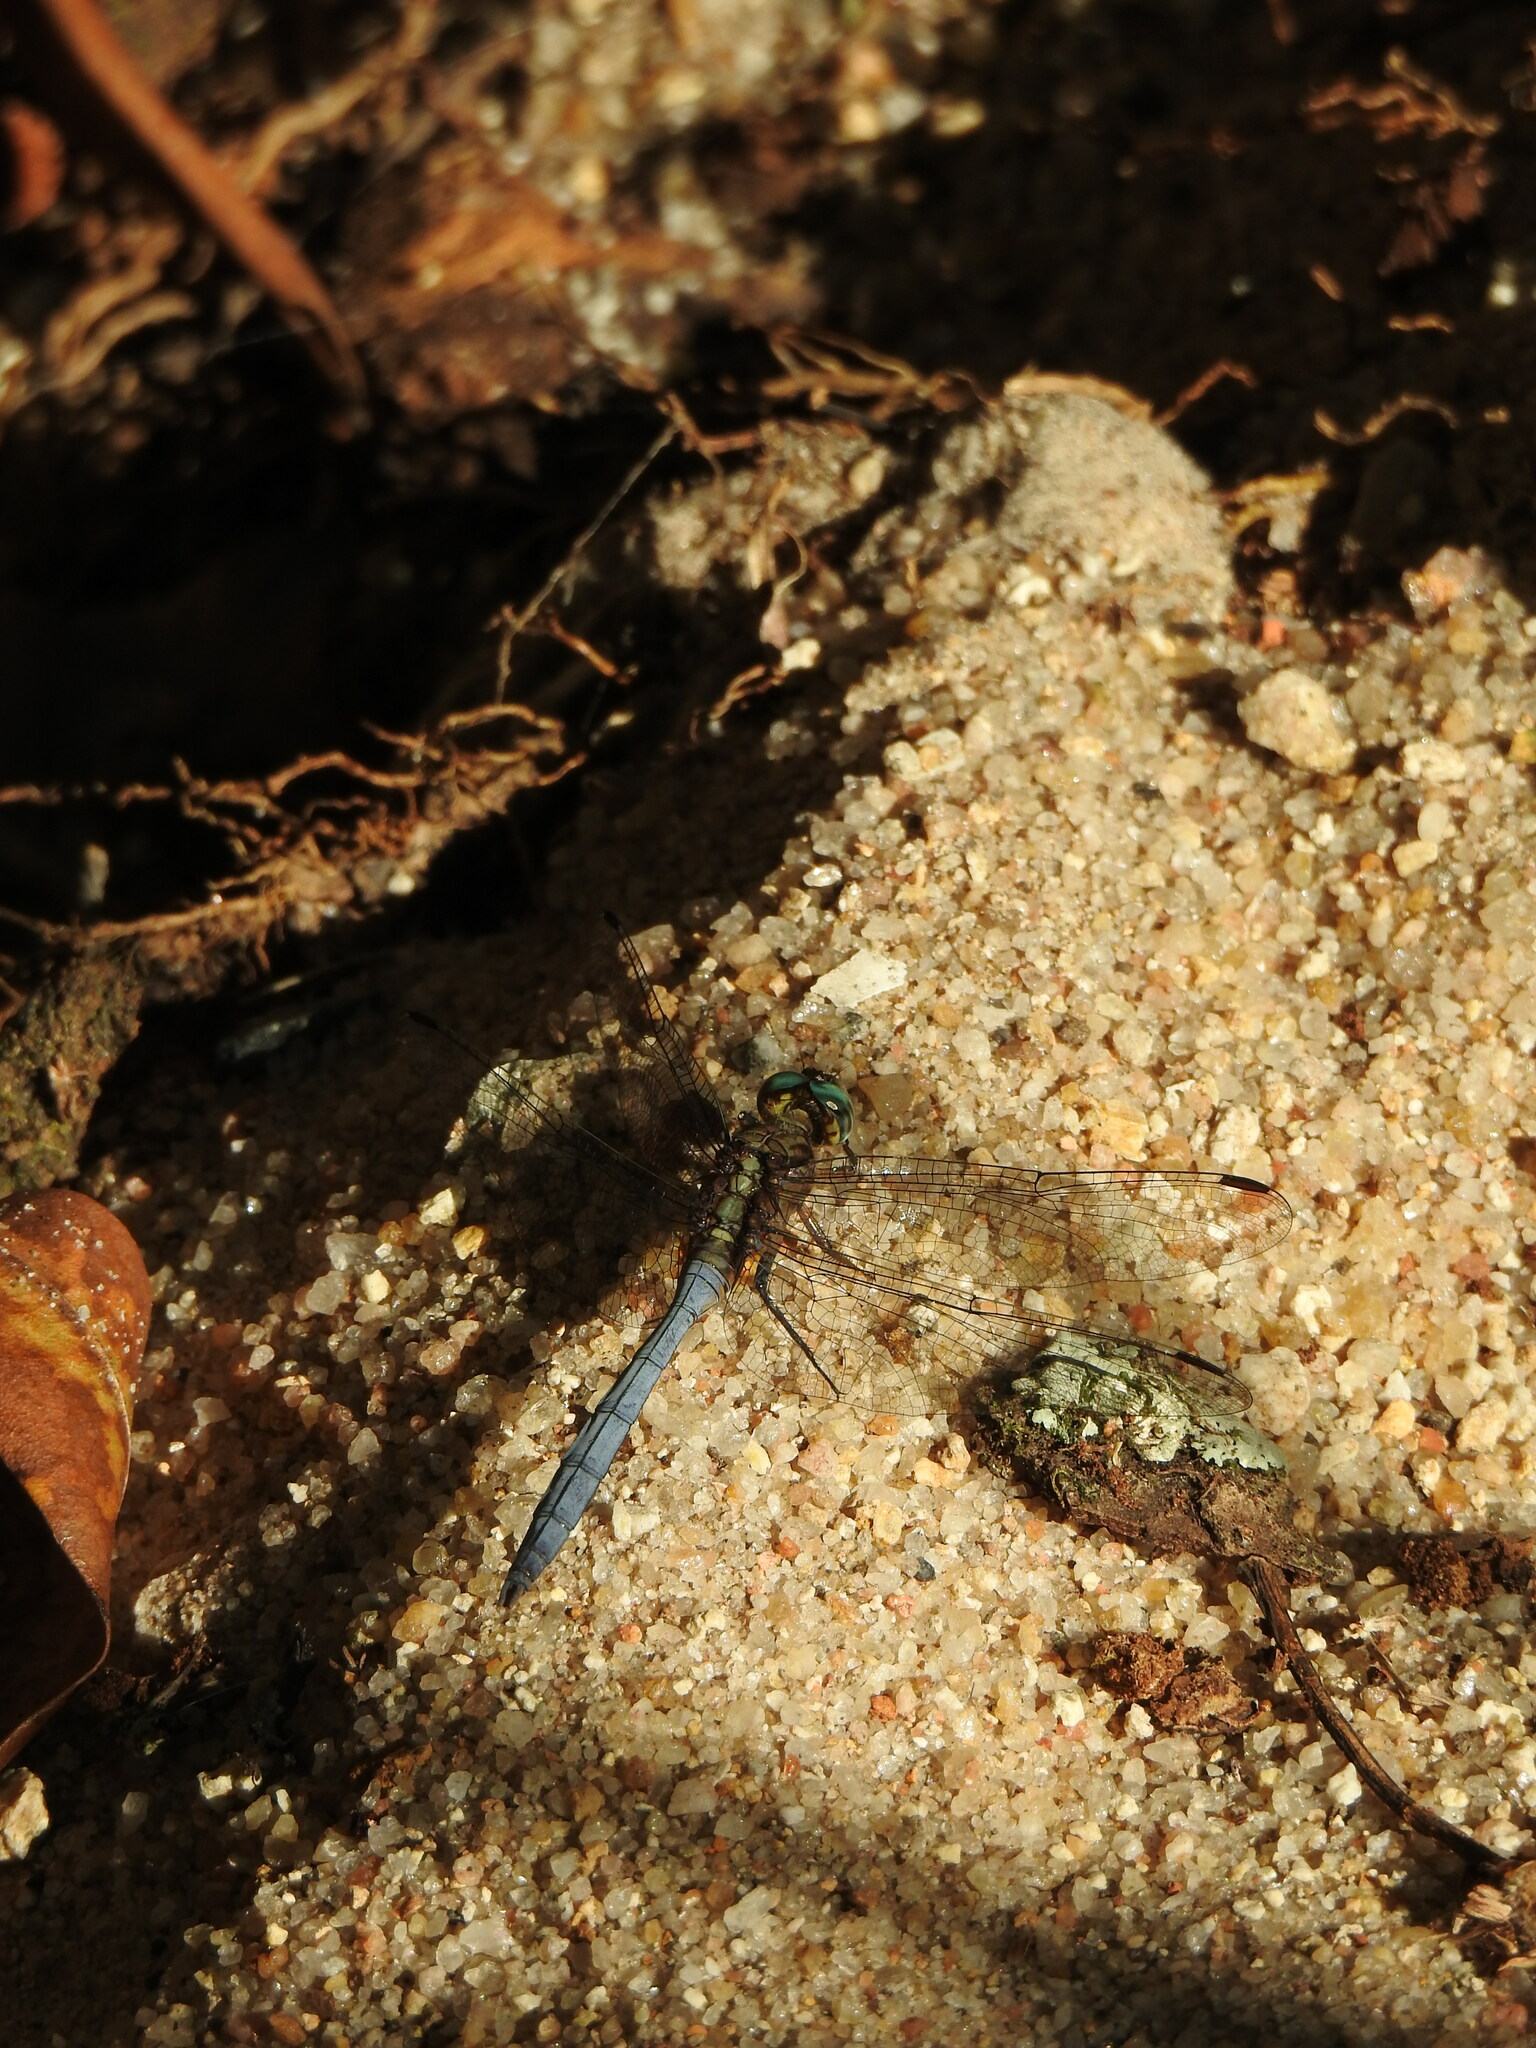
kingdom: Animalia
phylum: Arthropoda
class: Insecta
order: Odonata
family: Libellulidae
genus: Orthetrum
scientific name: Orthetrum julia
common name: Julia skimmer
